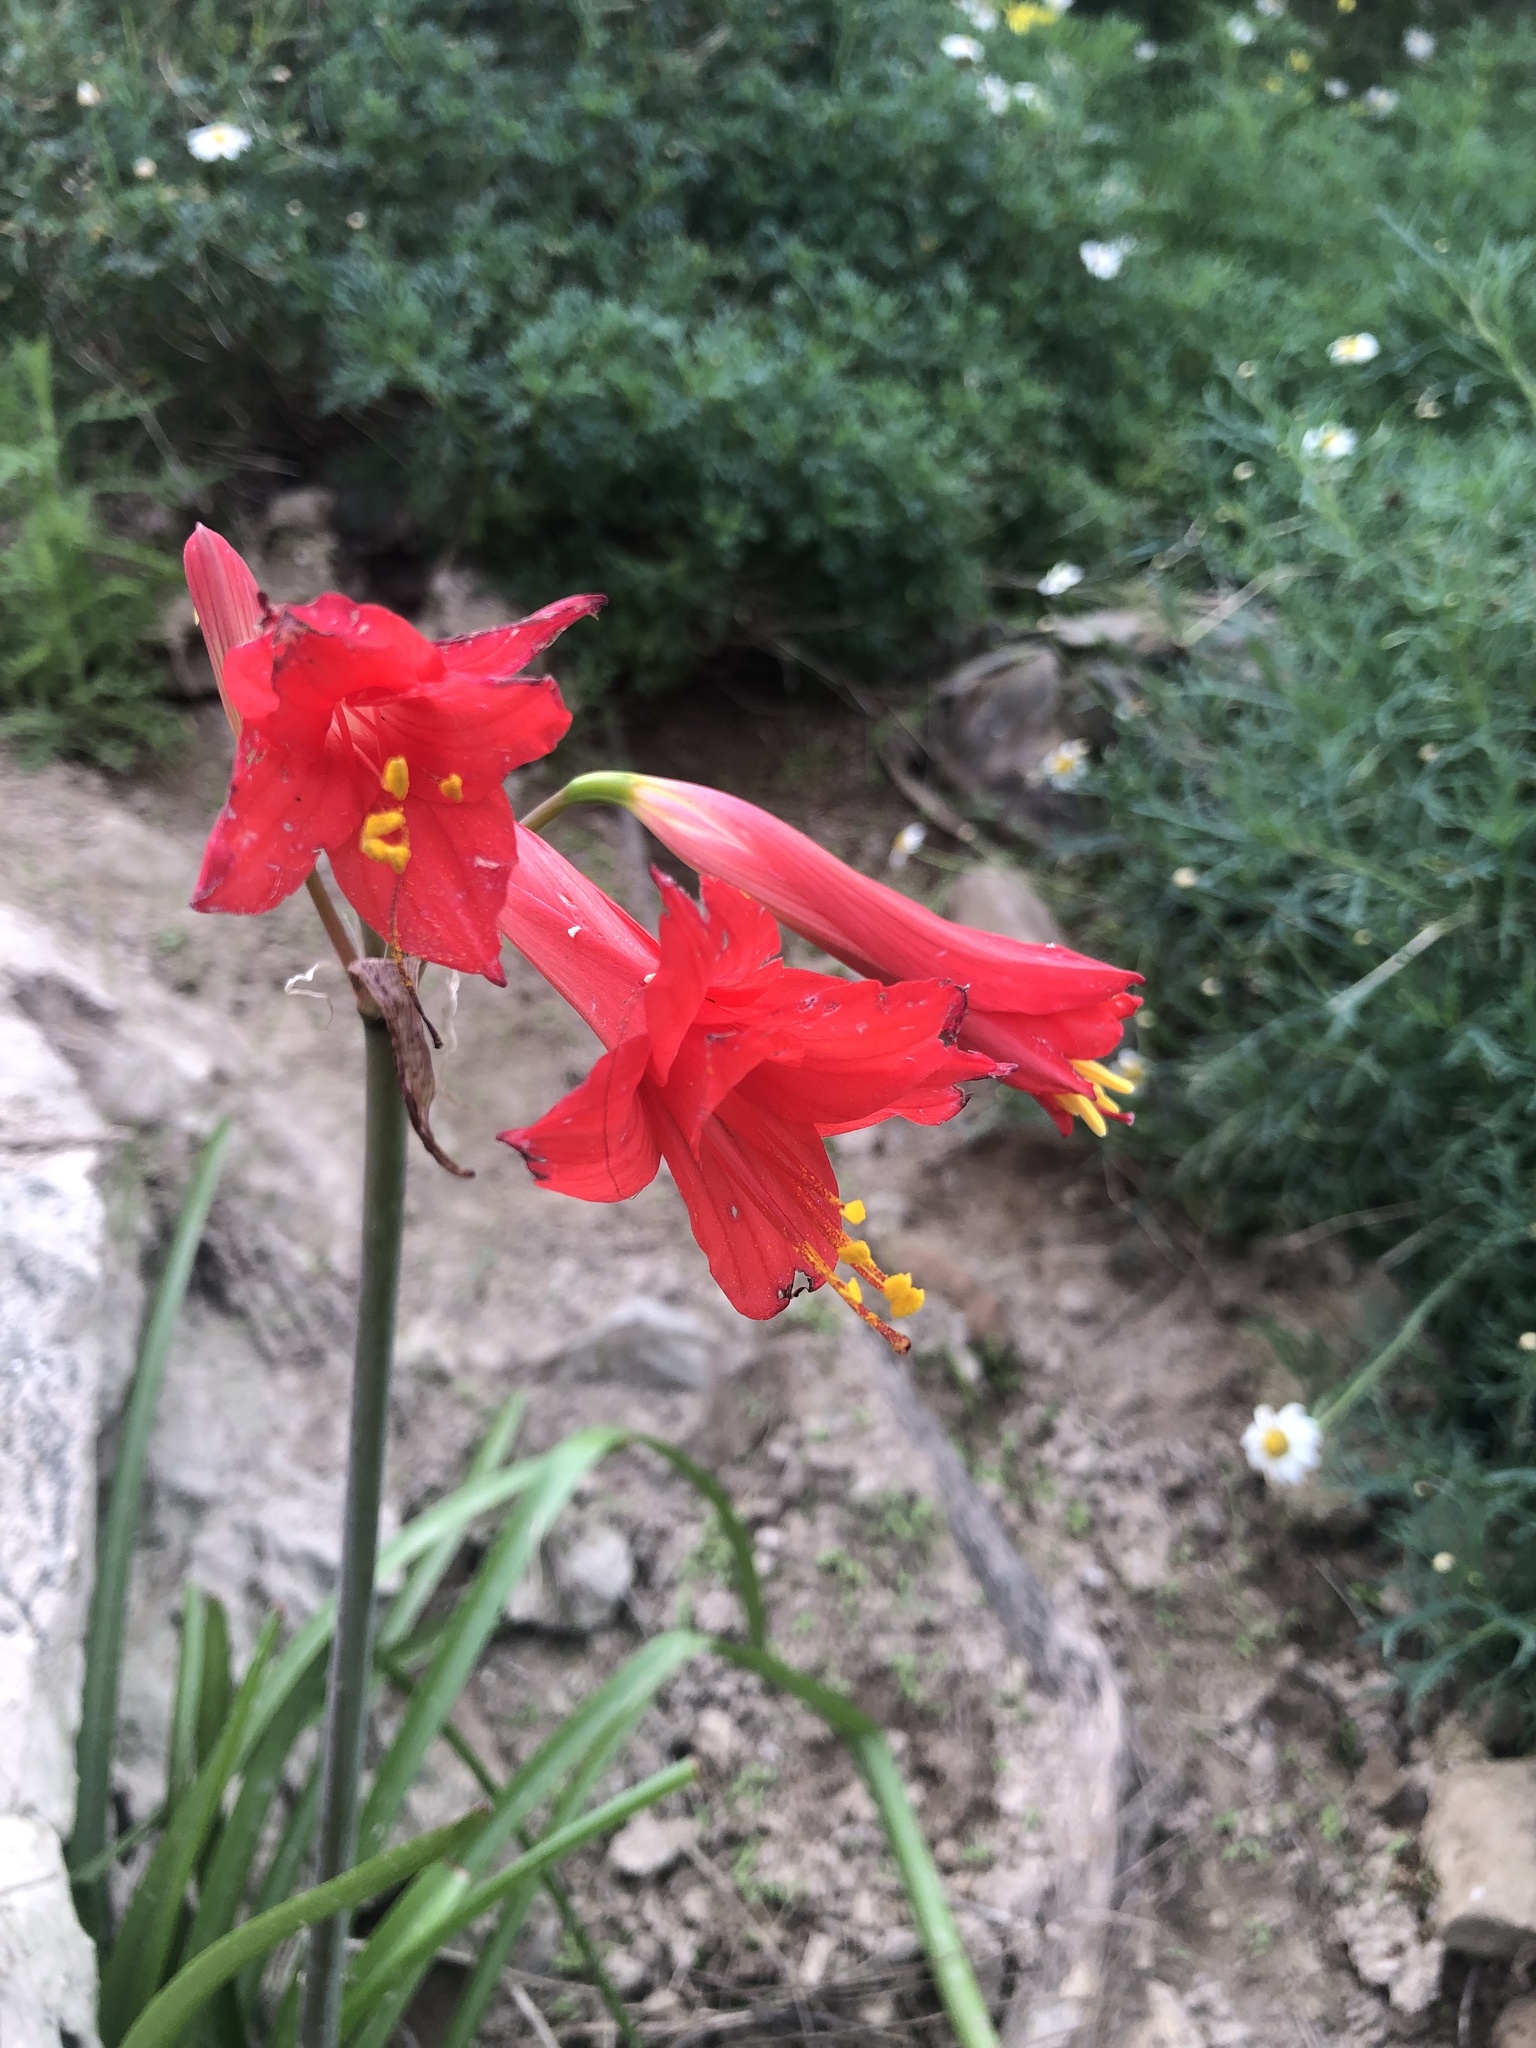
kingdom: Plantae
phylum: Tracheophyta
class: Liliopsida
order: Asparagales
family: Amaryllidaceae
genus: Phycella
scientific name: Phycella cyrtanthoides
